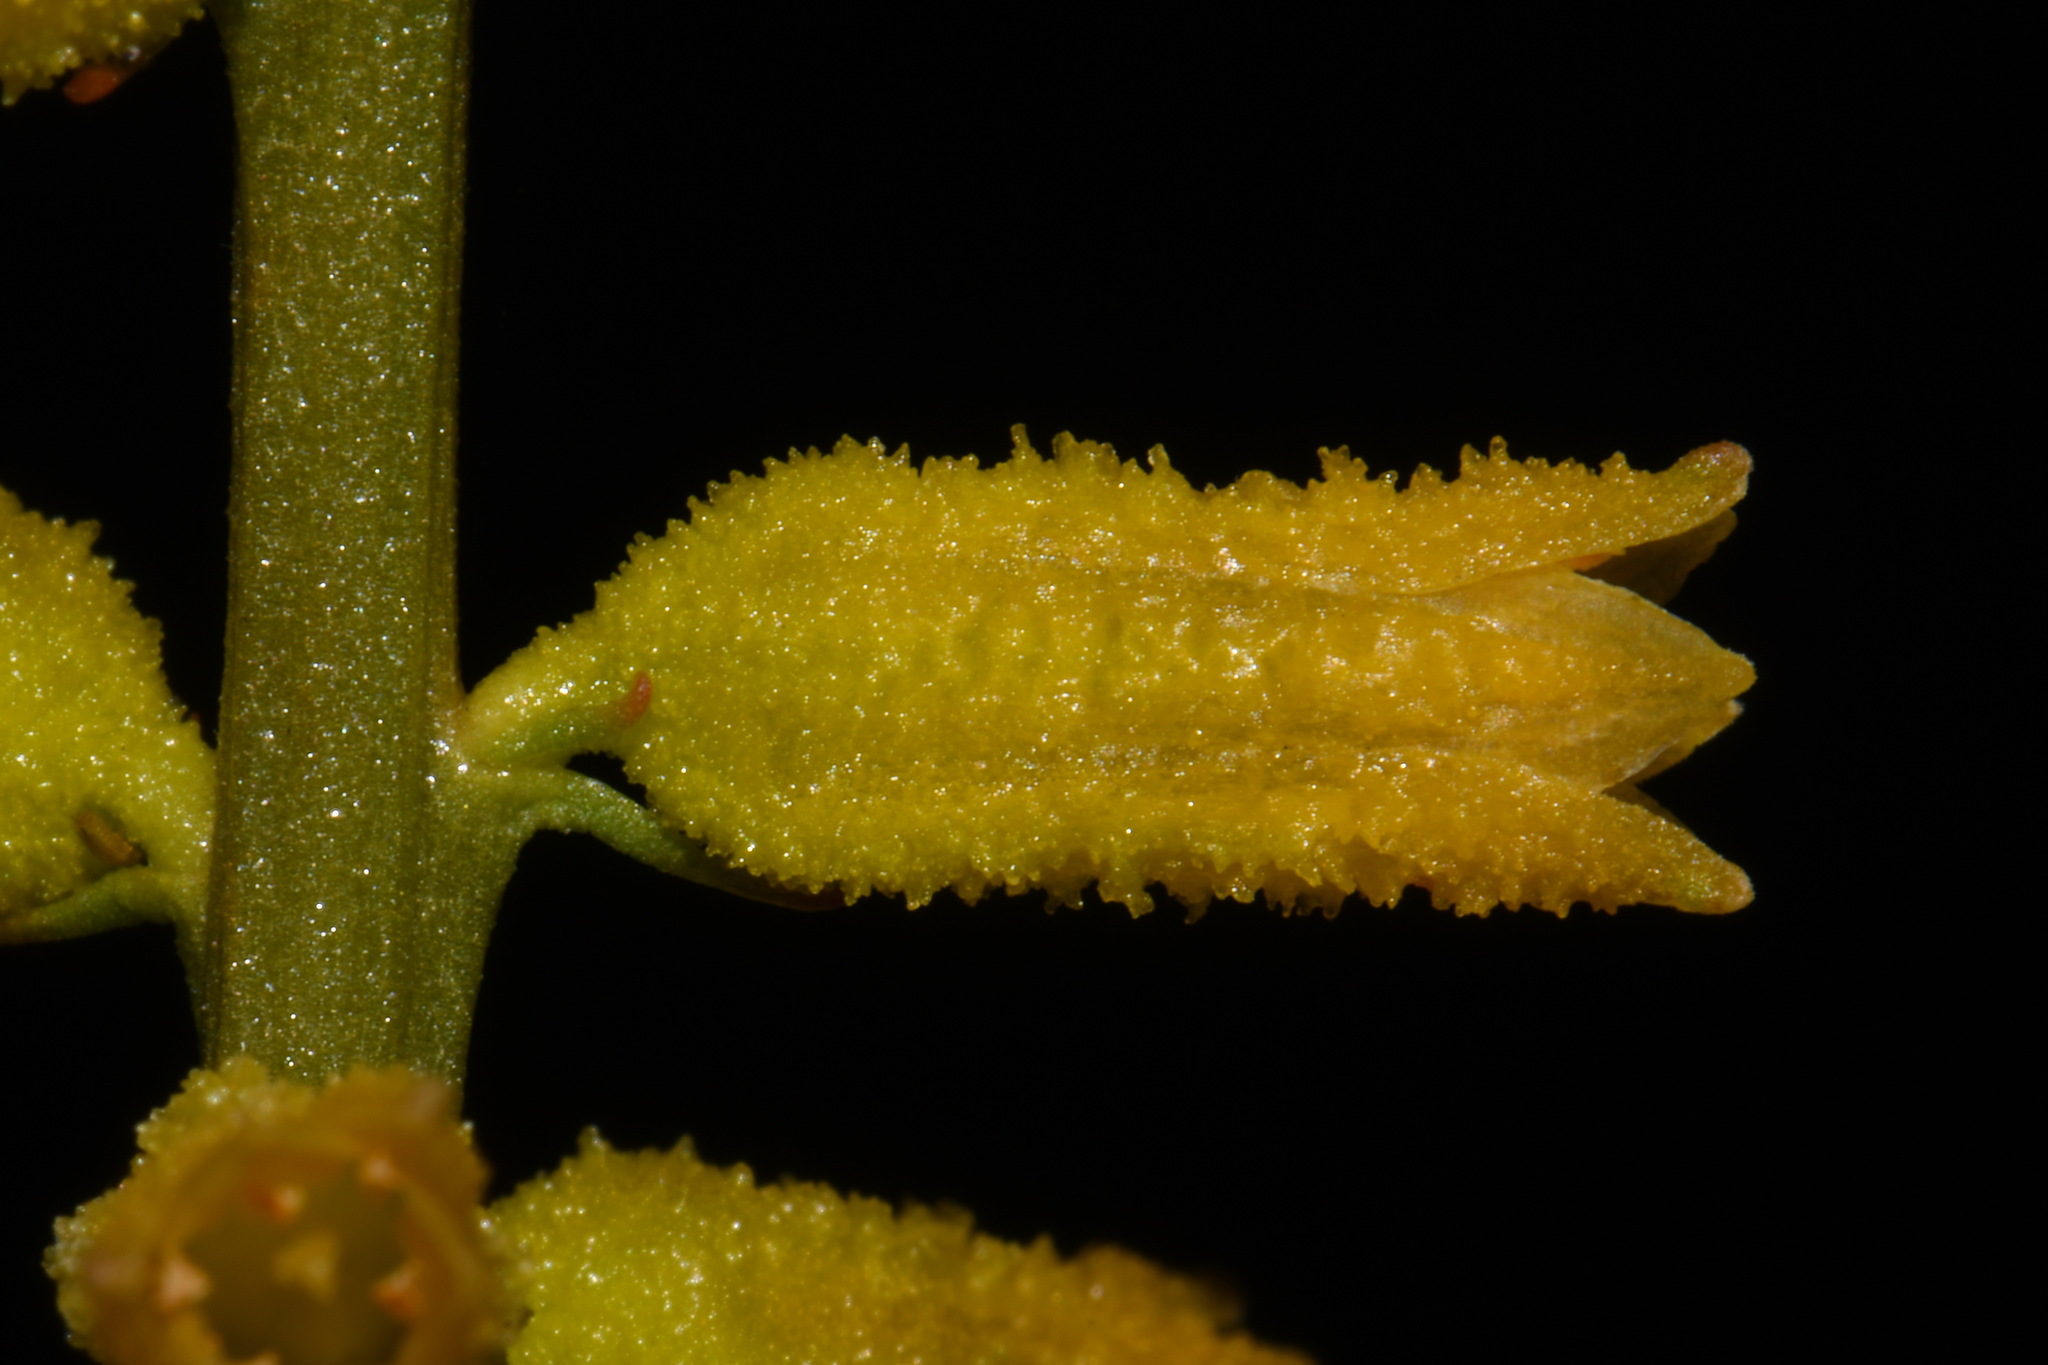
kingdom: Plantae
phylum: Tracheophyta
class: Liliopsida
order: Dioscoreales
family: Nartheciaceae
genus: Aletris
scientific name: Aletris lutea
